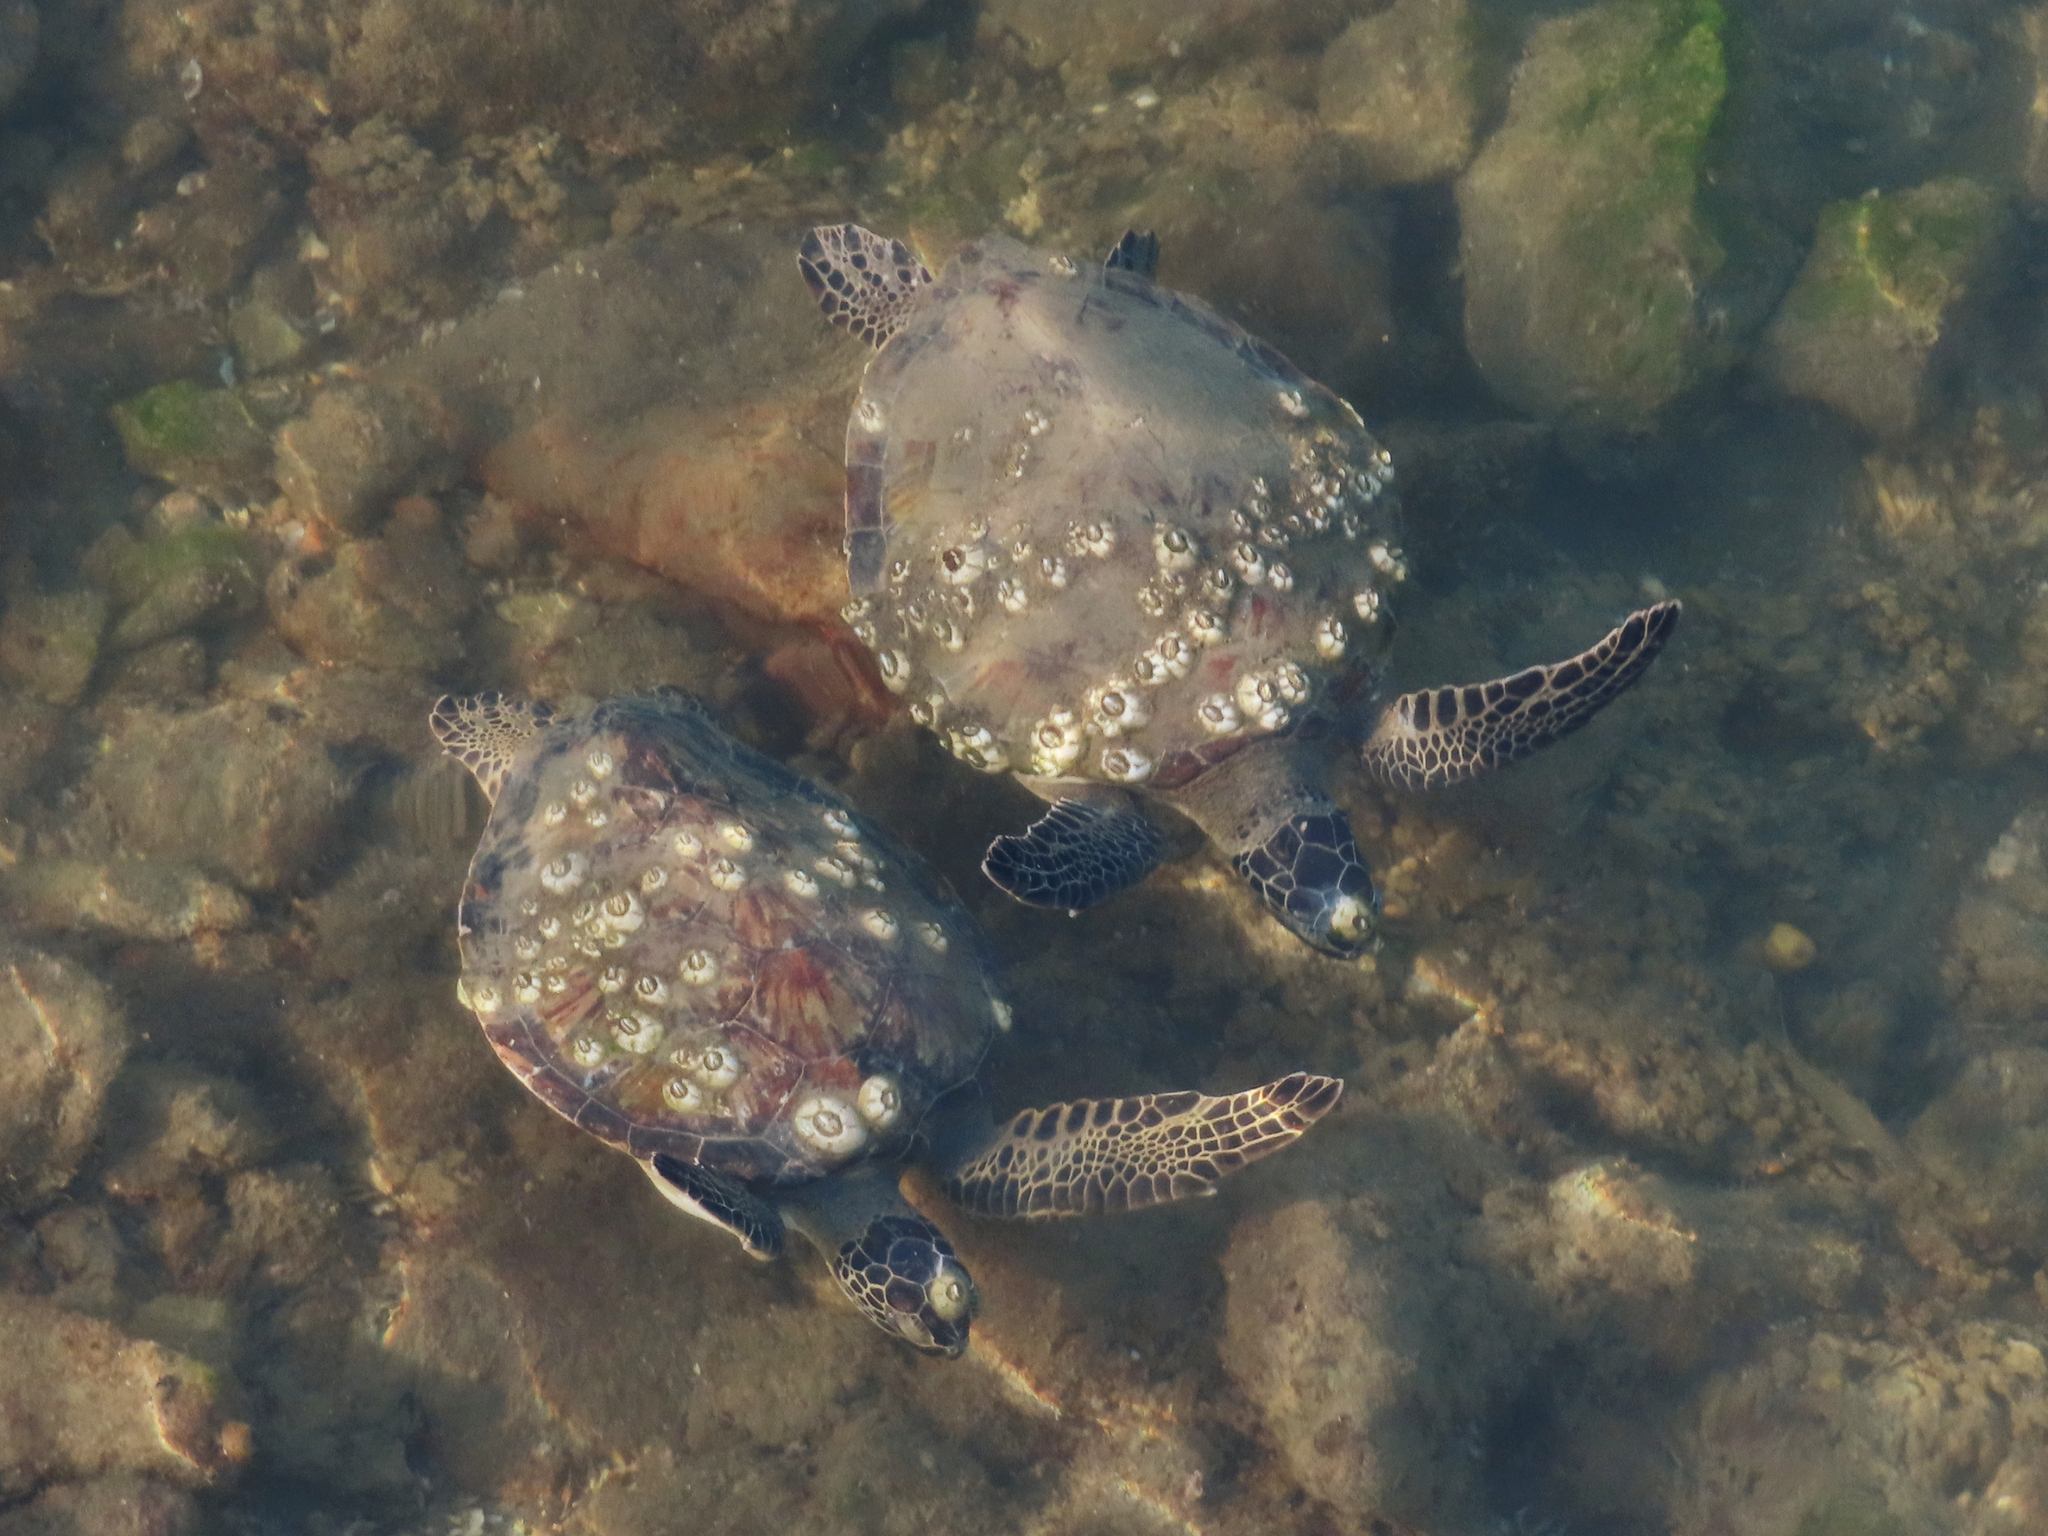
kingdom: Animalia
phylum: Chordata
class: Testudines
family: Cheloniidae
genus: Chelonia
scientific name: Chelonia mydas
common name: Green turtle
